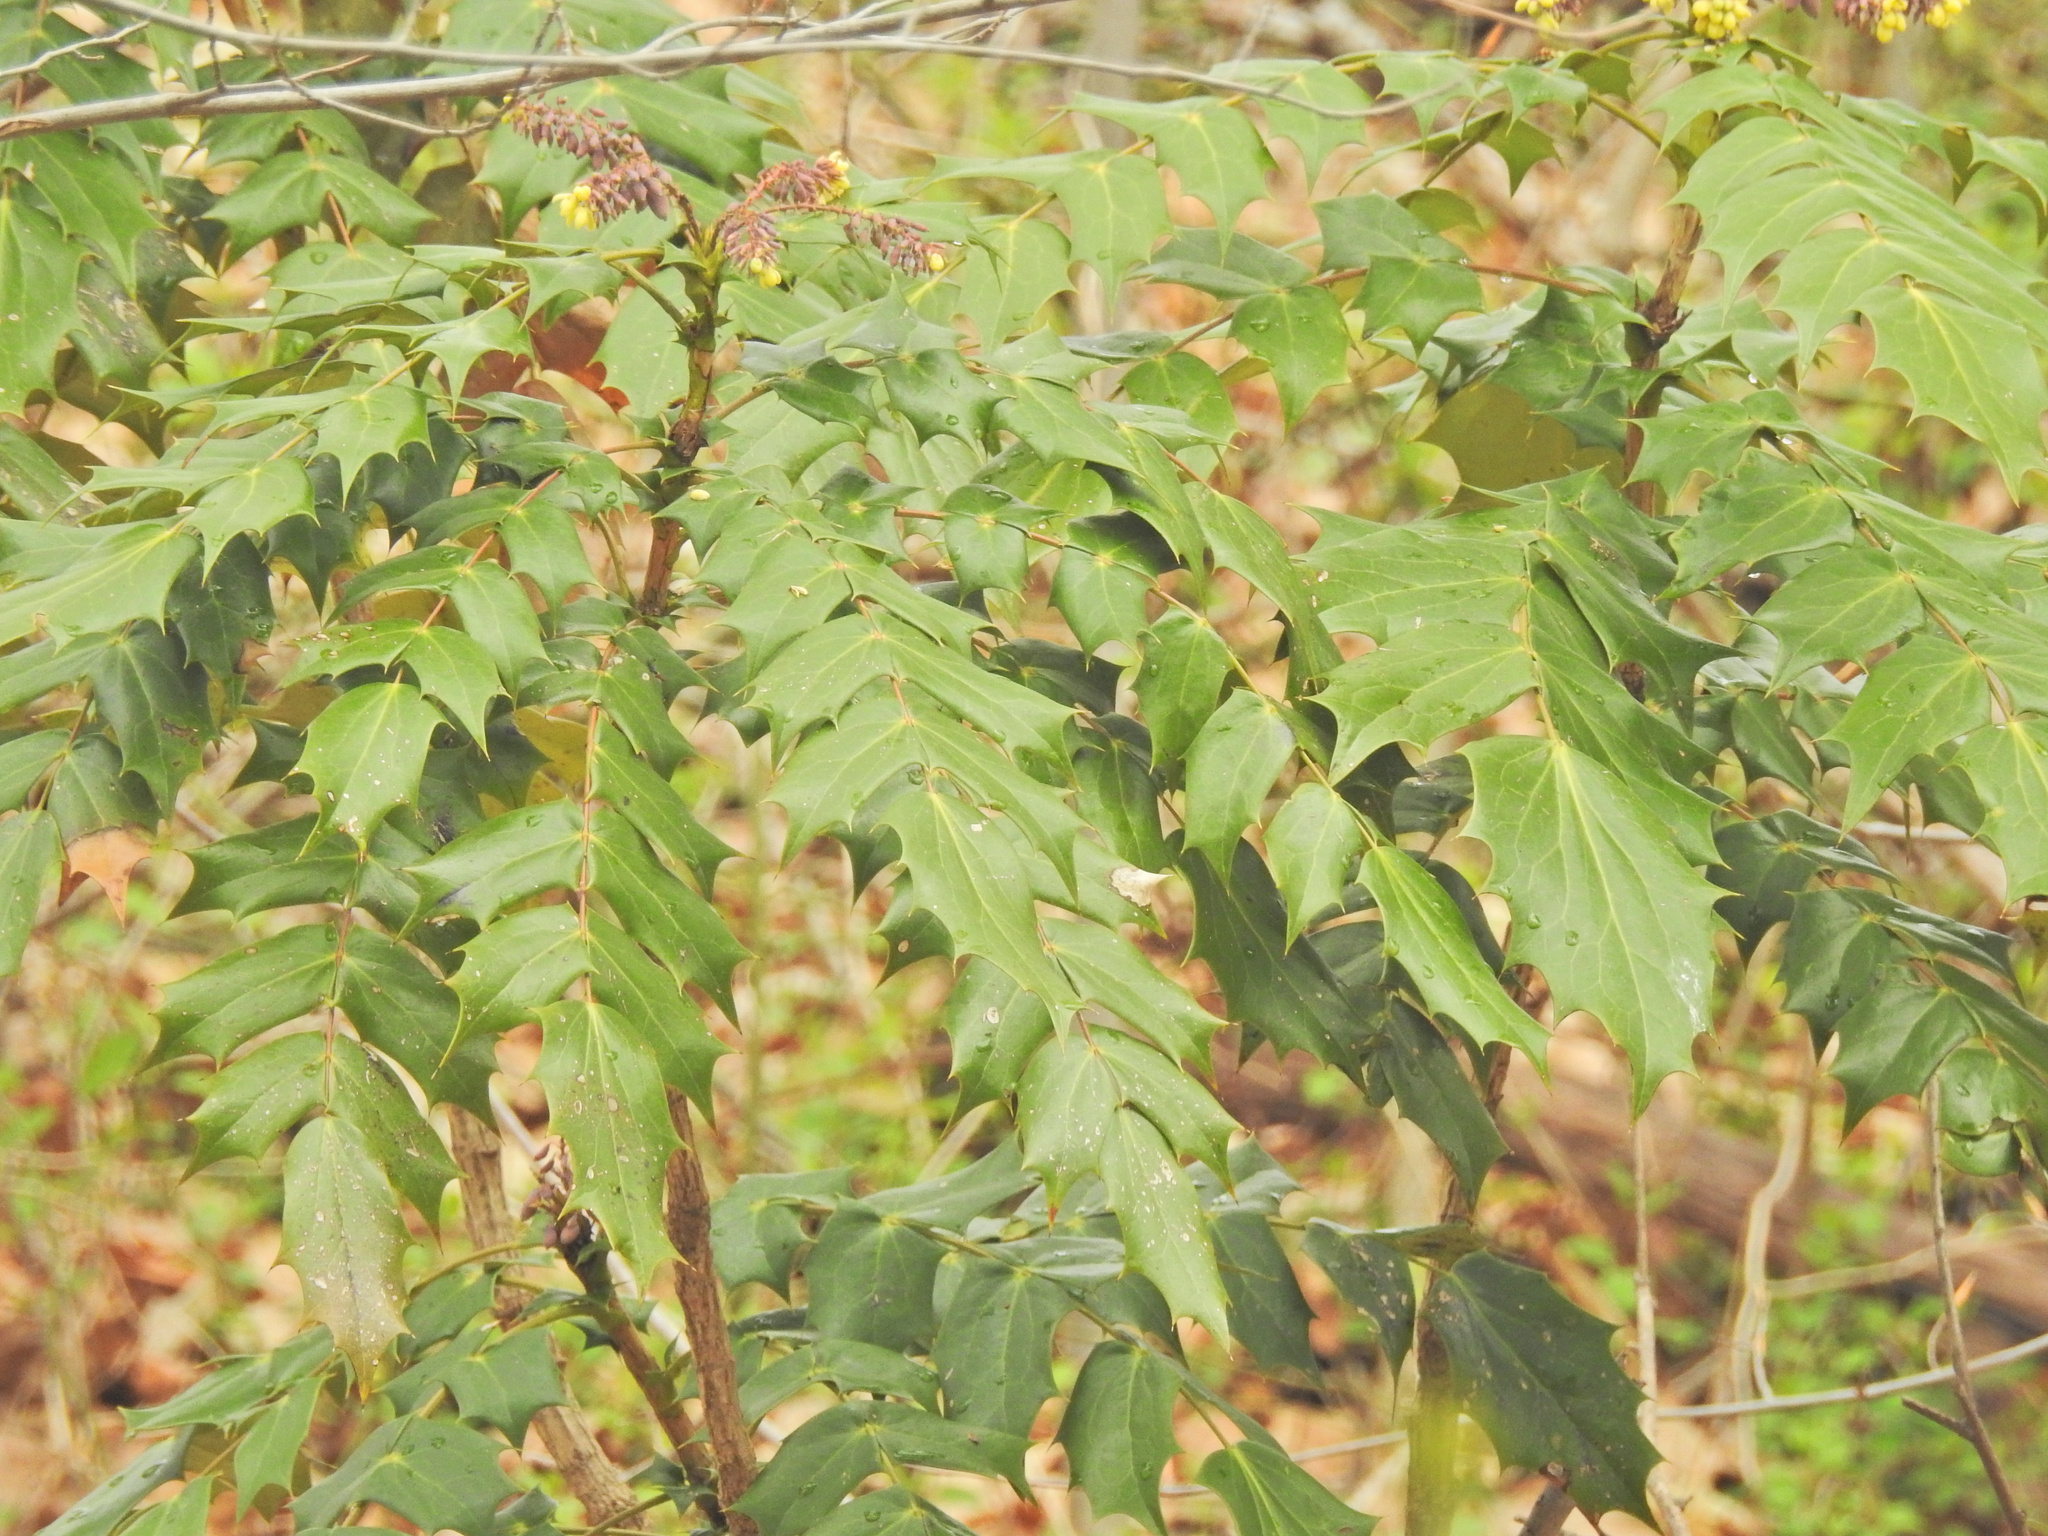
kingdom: Plantae
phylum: Tracheophyta
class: Magnoliopsida
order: Ranunculales
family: Berberidaceae
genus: Mahonia
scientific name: Mahonia bealei
